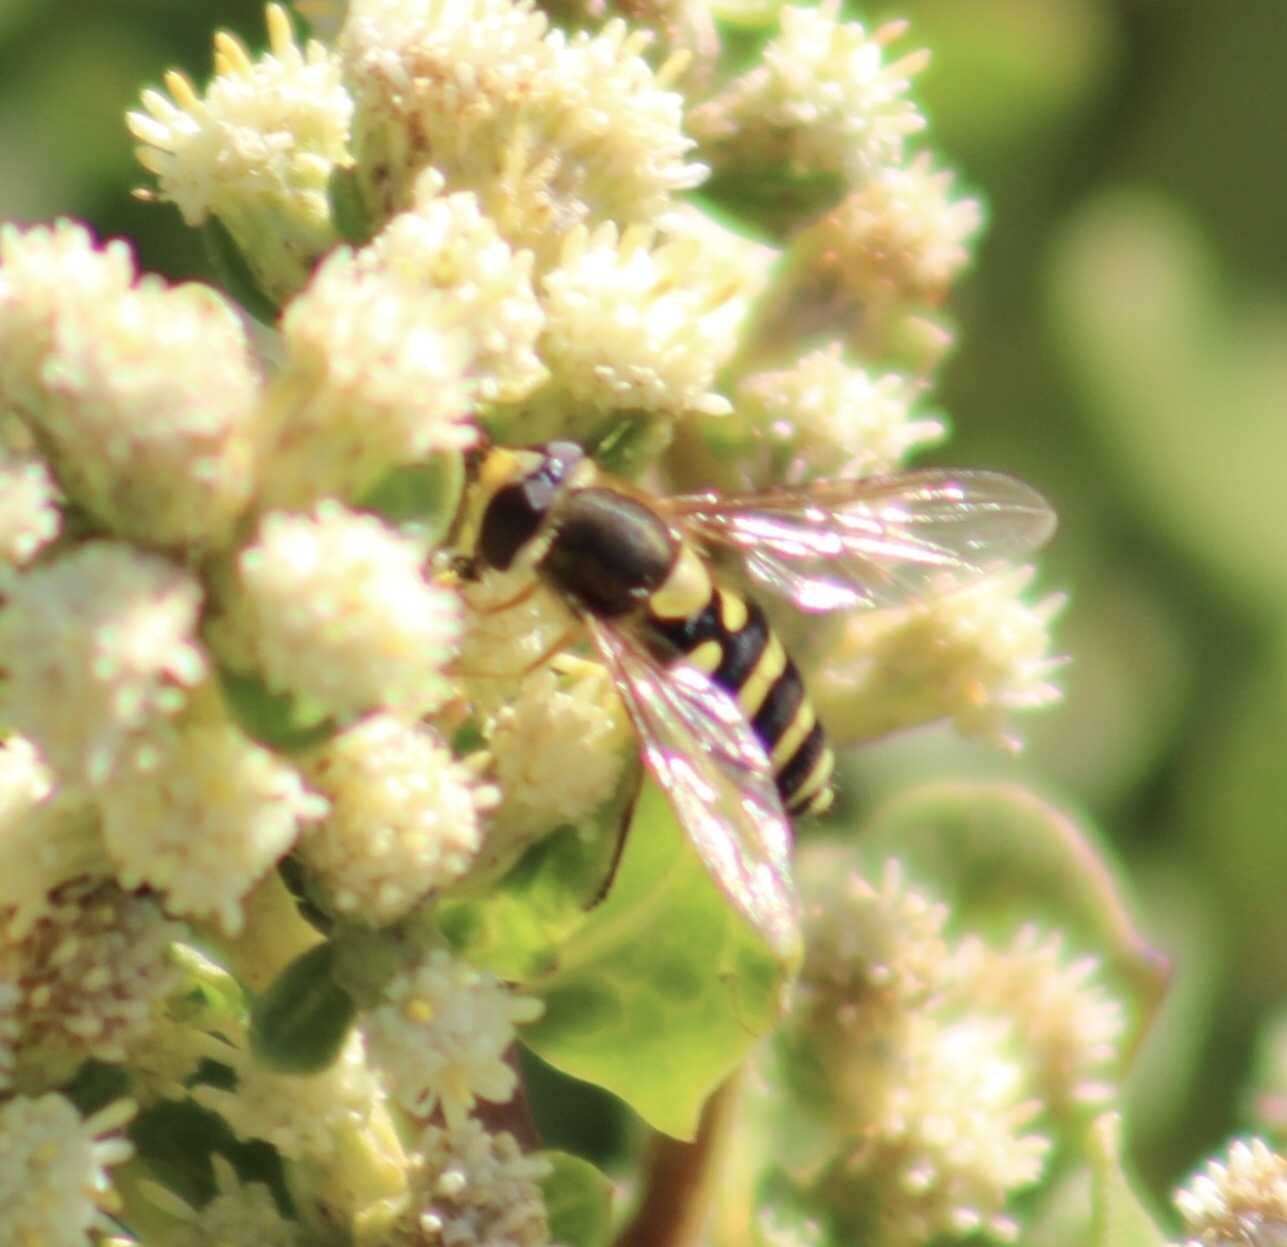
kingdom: Animalia
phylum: Arthropoda
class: Insecta
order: Diptera
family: Syrphidae
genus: Syrphus
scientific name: Syrphus opinator
